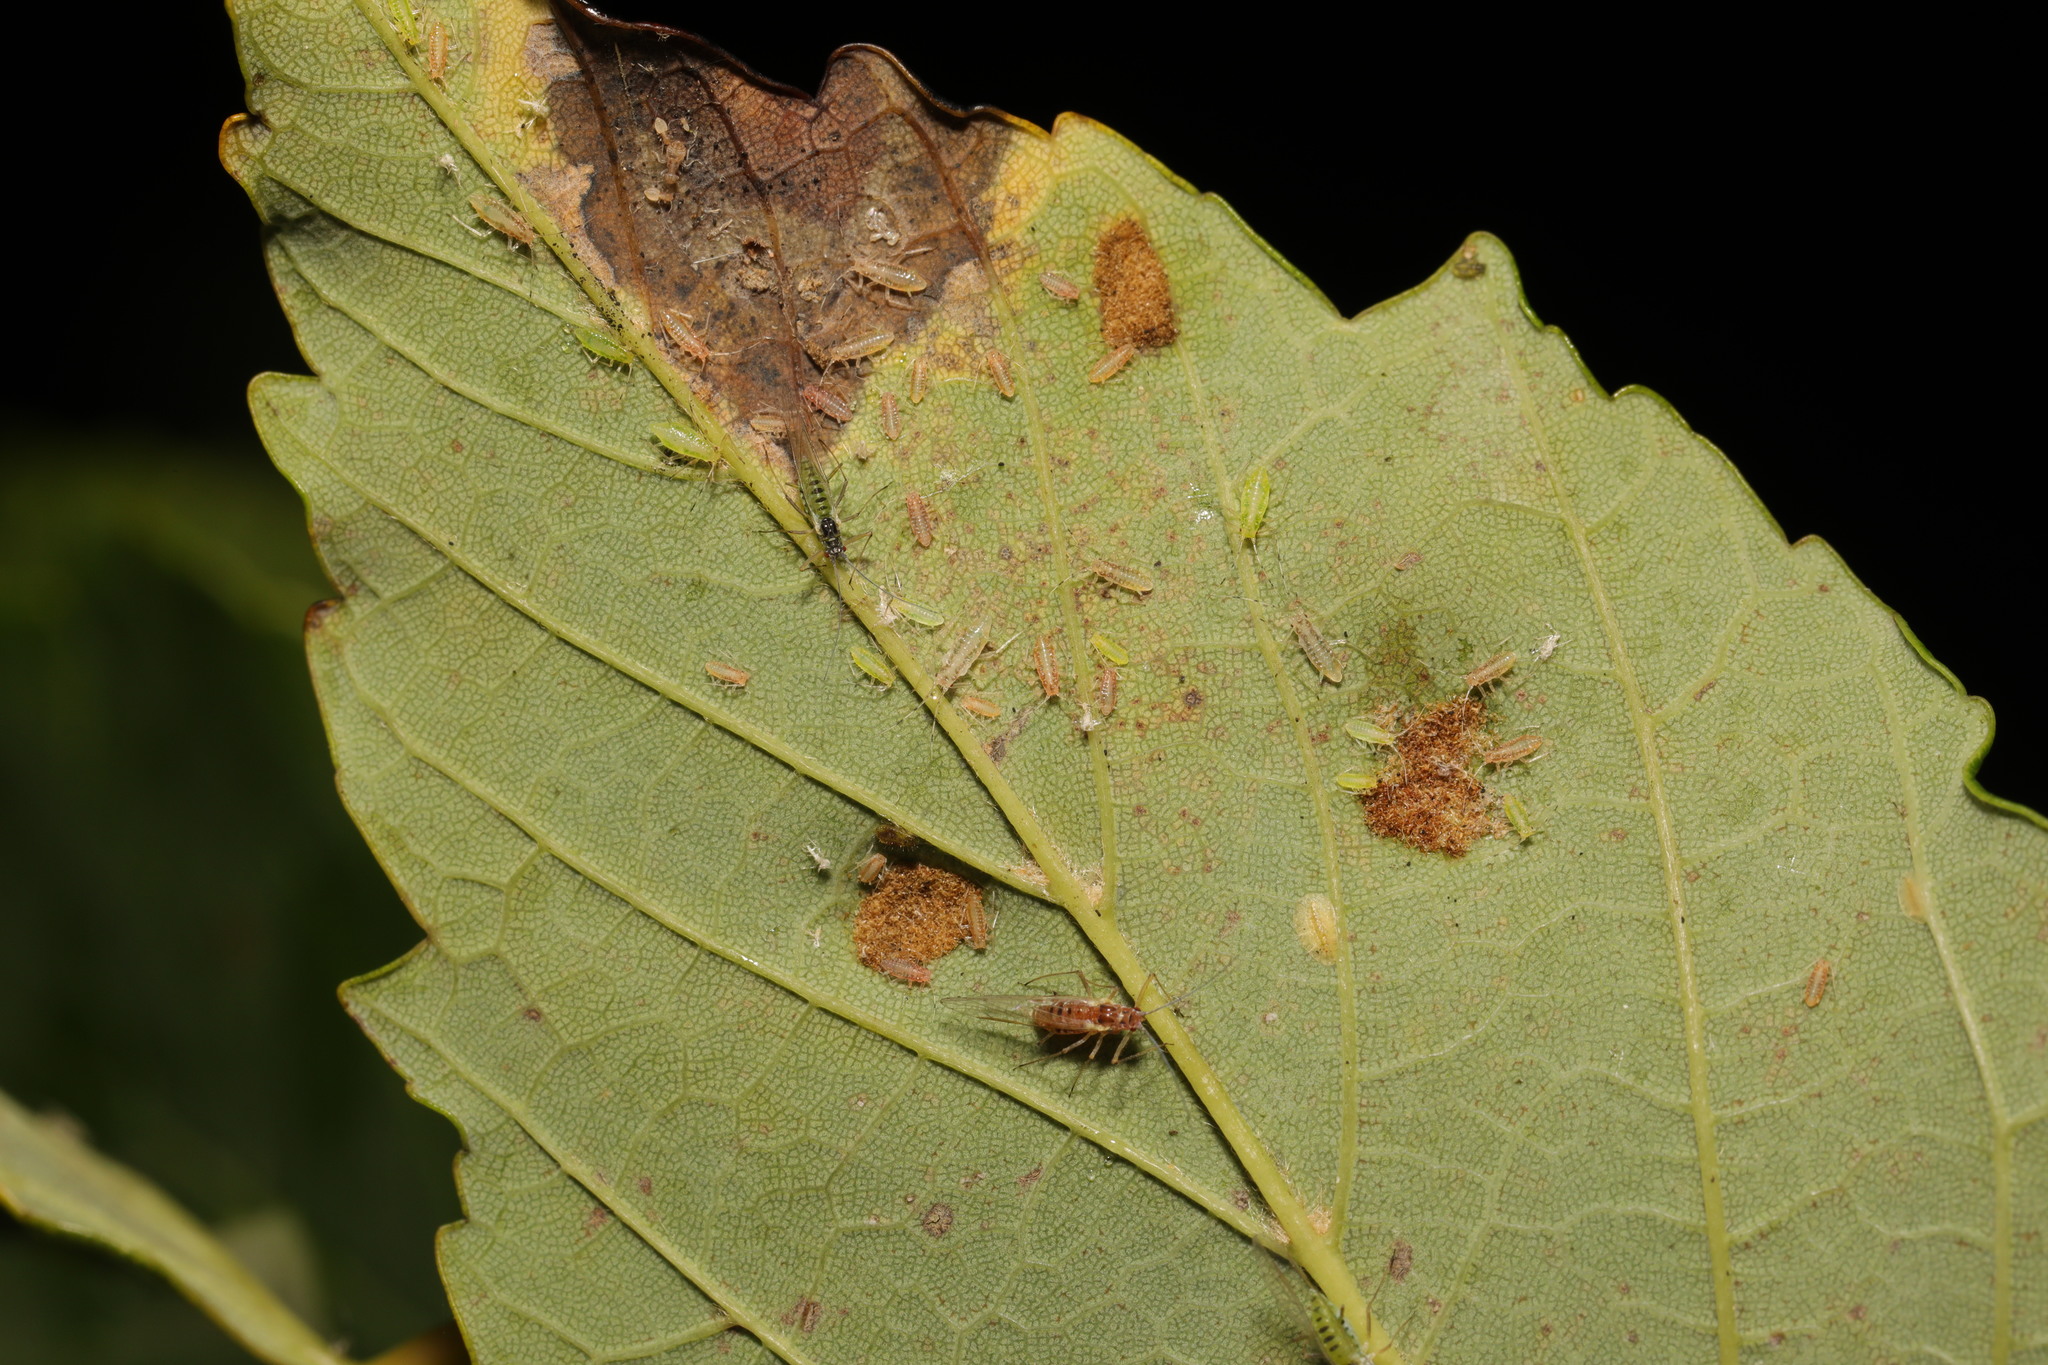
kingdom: Animalia
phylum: Arthropoda
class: Arachnida
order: Trombidiformes
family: Eriophyidae
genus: Aceria
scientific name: Aceria pseudoplatani
